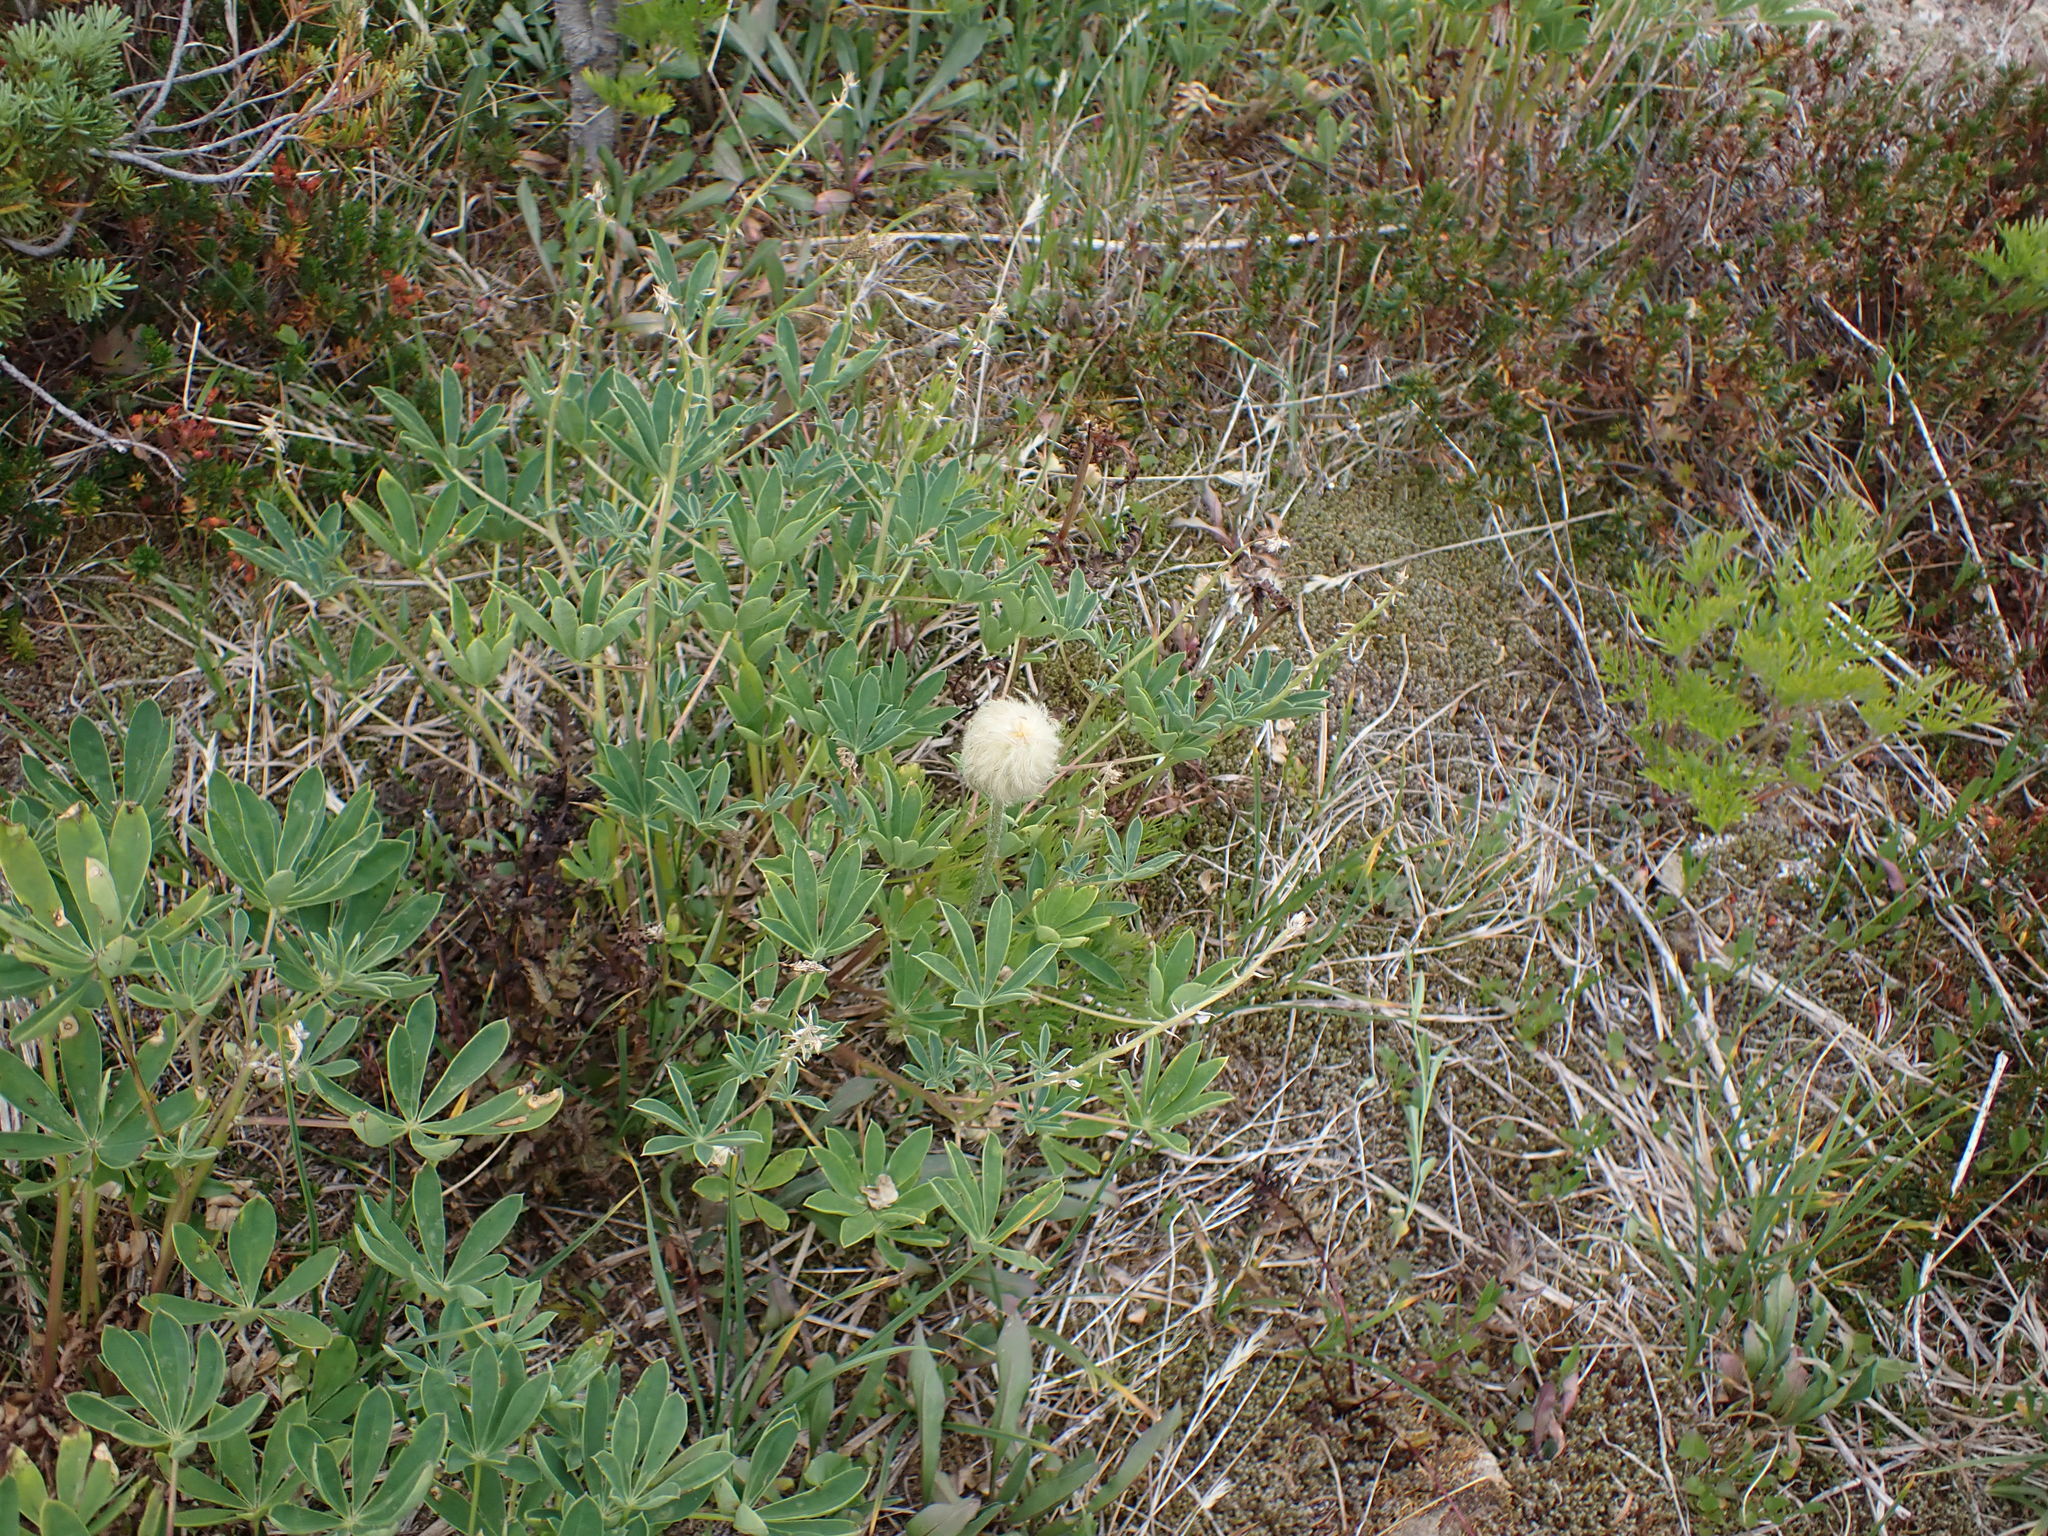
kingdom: Plantae
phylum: Tracheophyta
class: Magnoliopsida
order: Ranunculales
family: Ranunculaceae
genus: Pulsatilla
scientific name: Pulsatilla occidentalis
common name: Mountain pasqueflower
